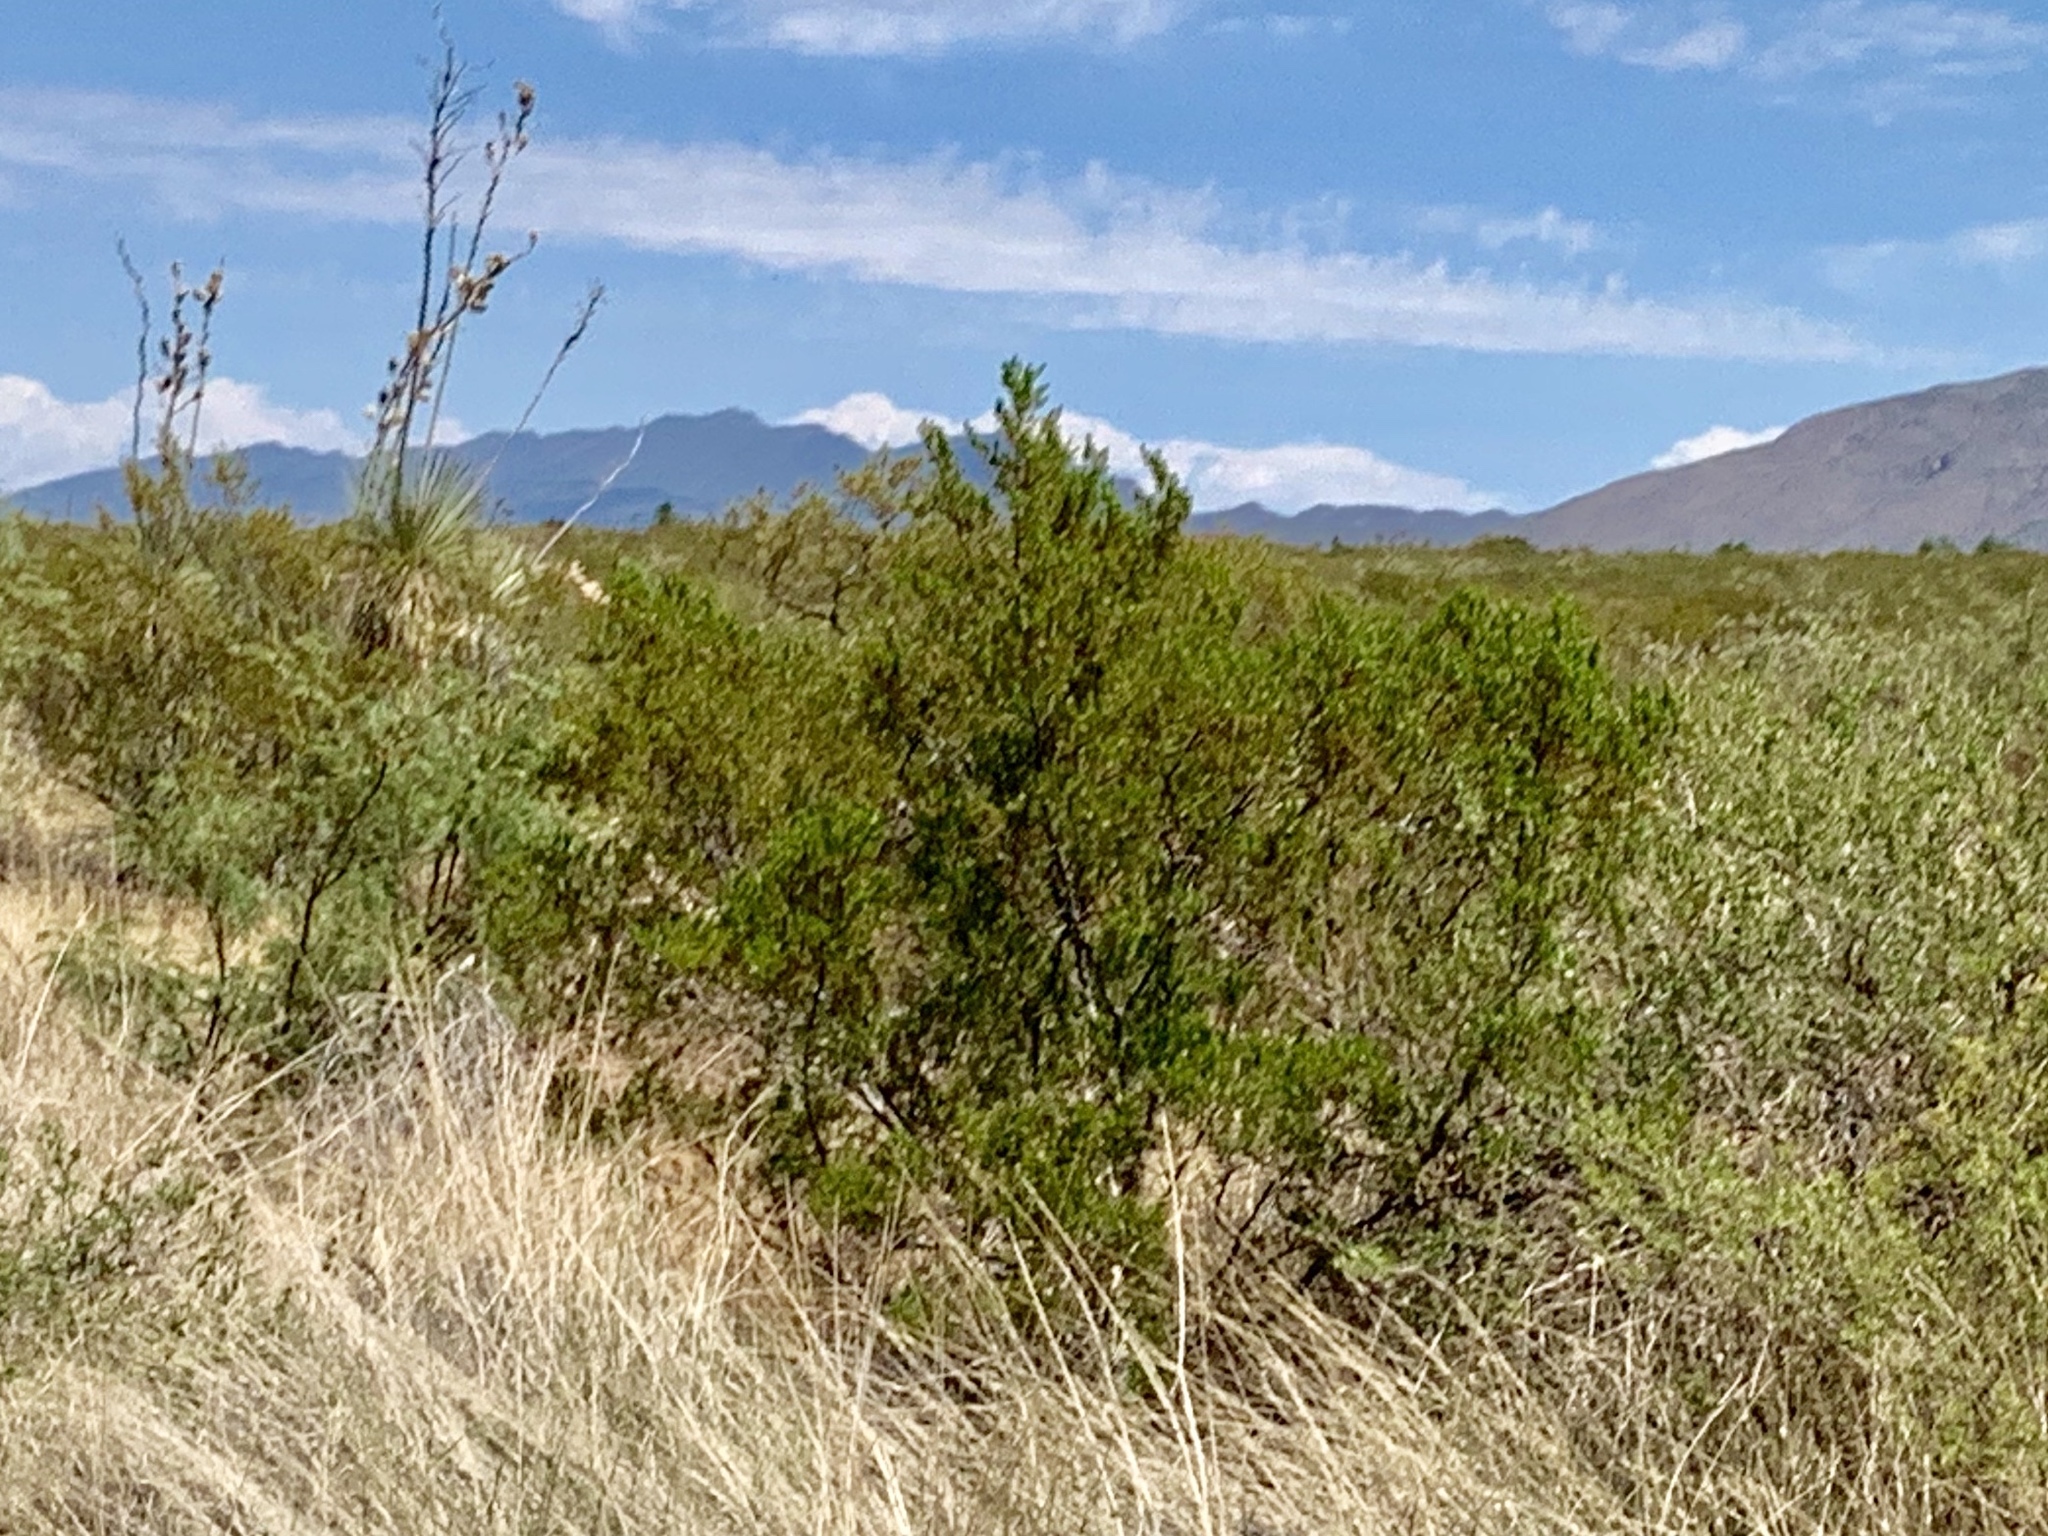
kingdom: Plantae
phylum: Tracheophyta
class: Magnoliopsida
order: Zygophyllales
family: Zygophyllaceae
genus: Larrea
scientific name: Larrea tridentata
